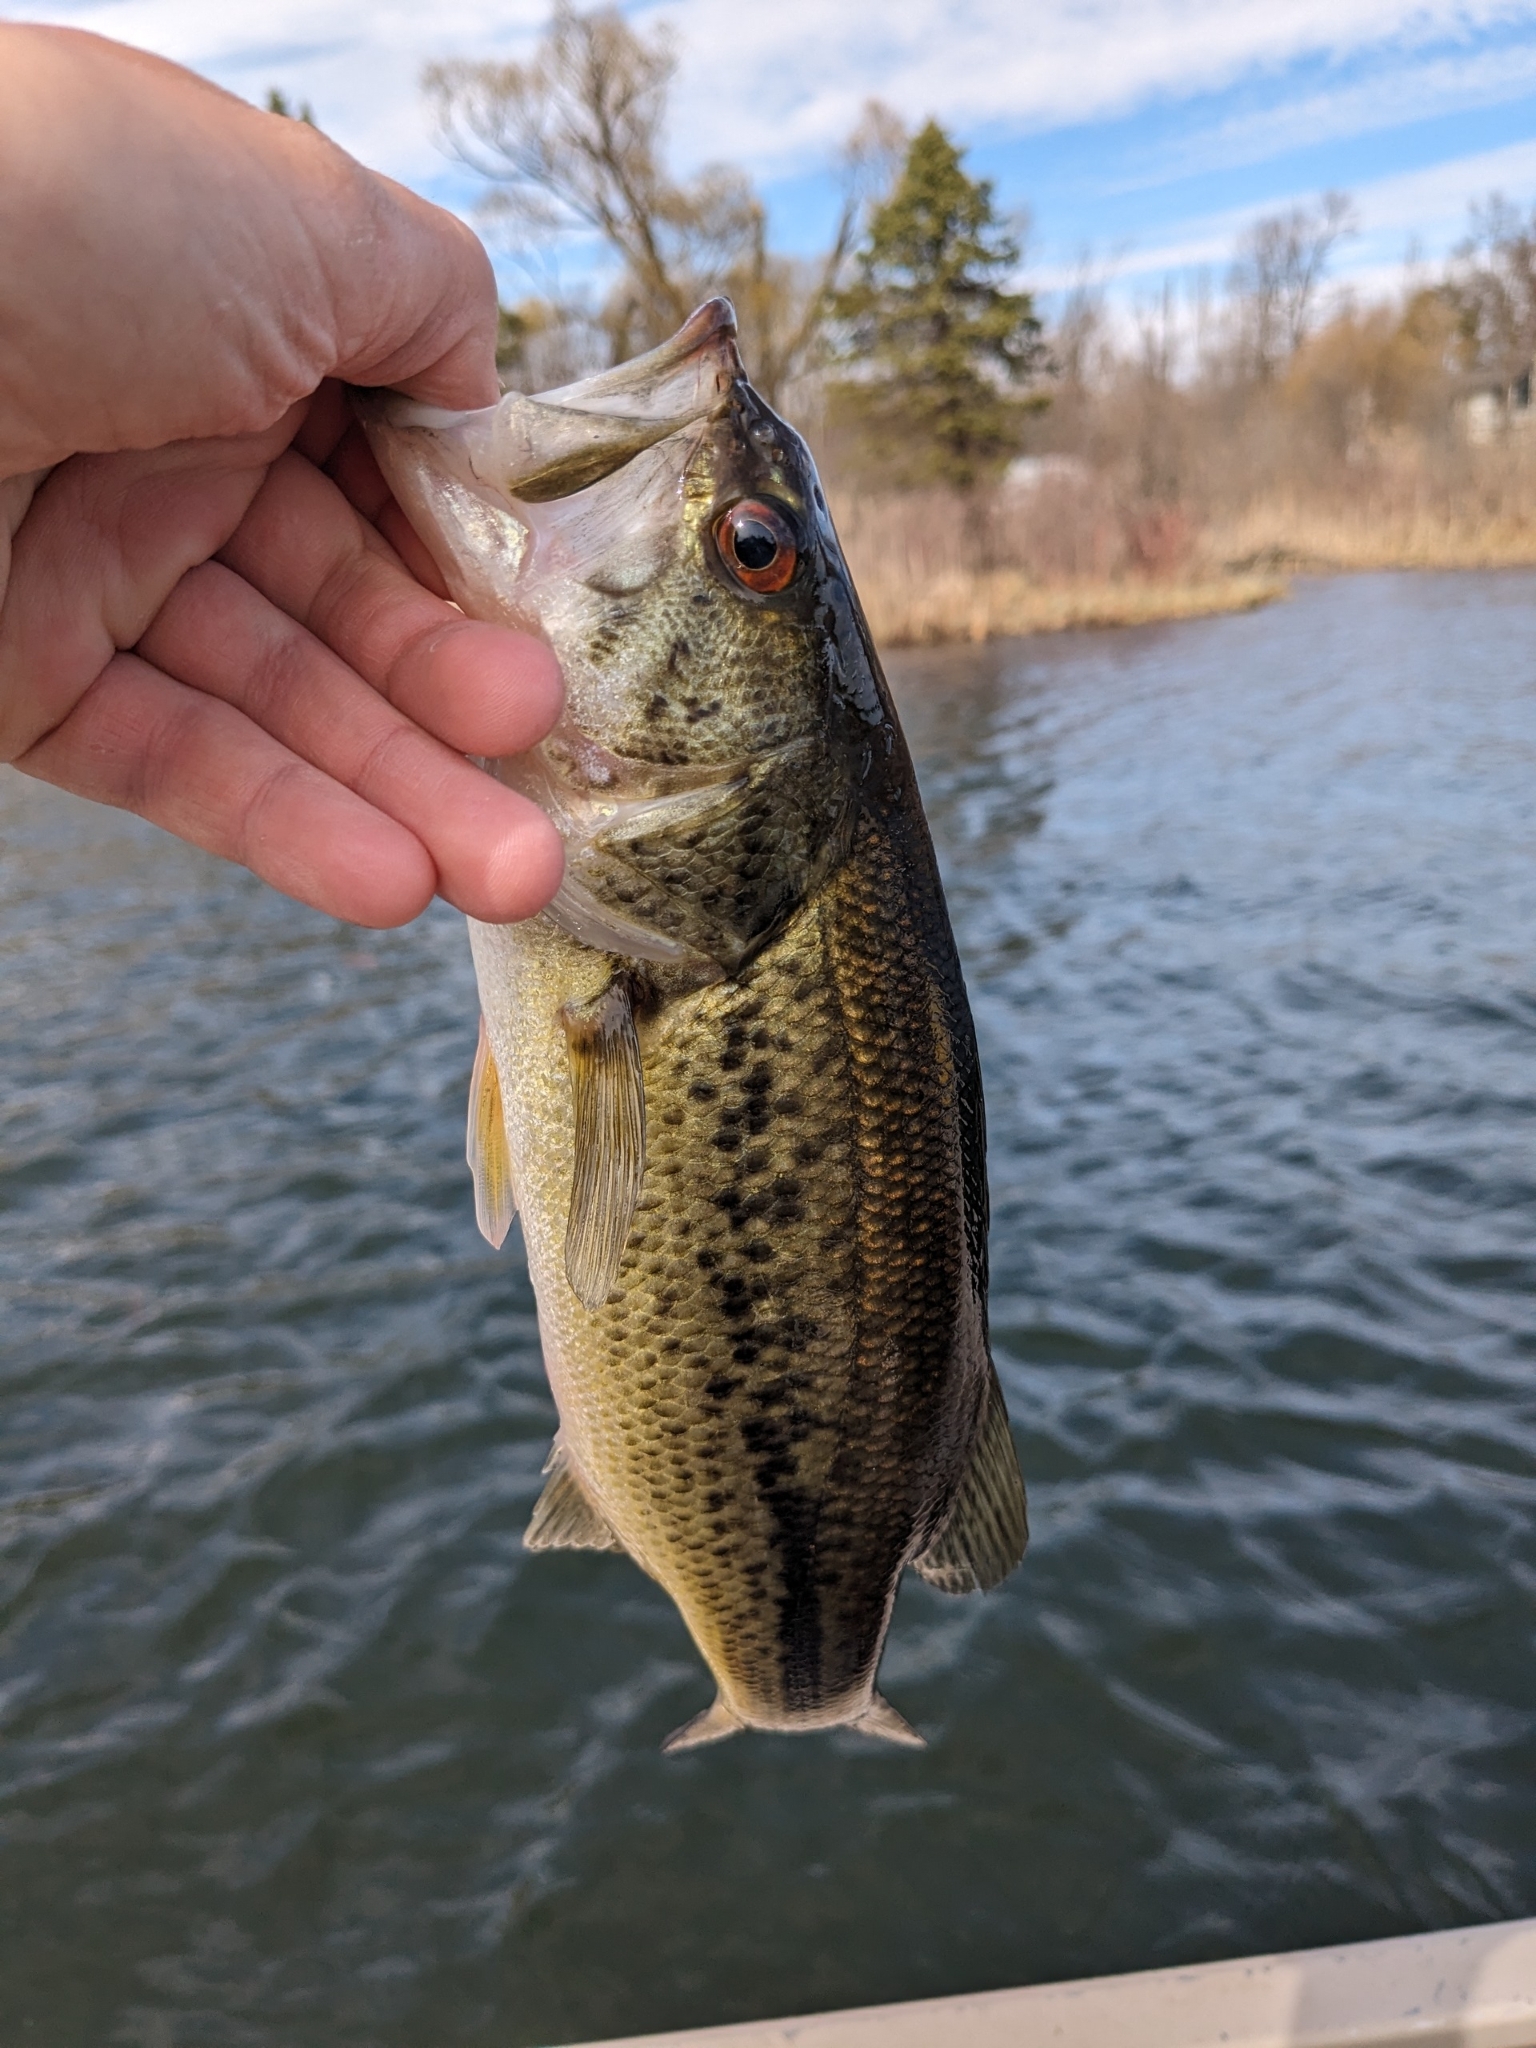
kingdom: Animalia
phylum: Chordata
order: Perciformes
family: Centrarchidae
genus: Micropterus
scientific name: Micropterus
